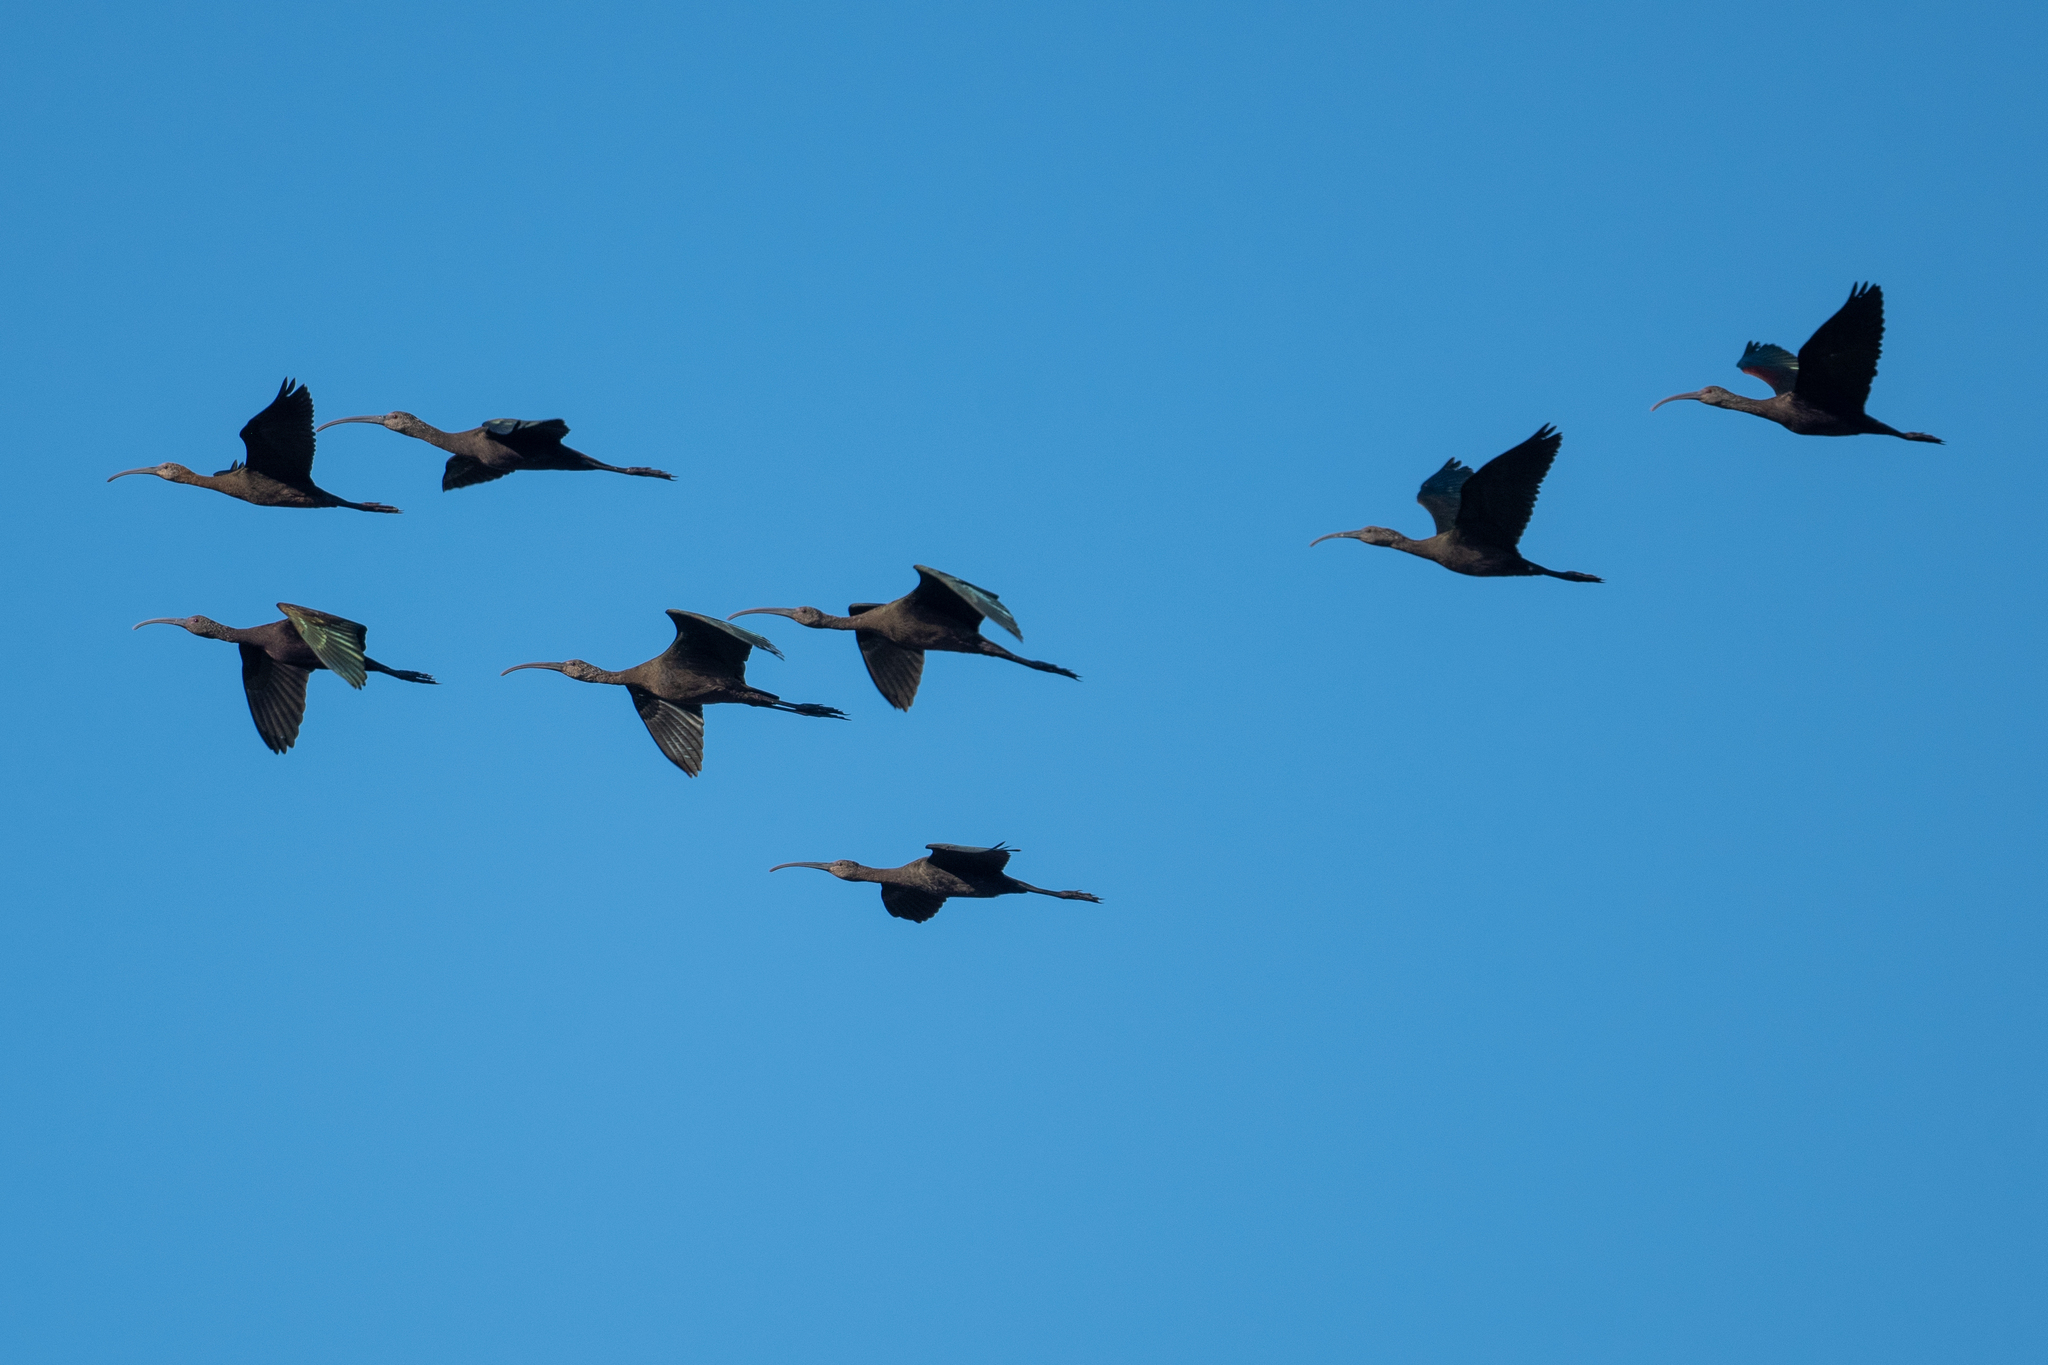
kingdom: Animalia
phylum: Chordata
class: Aves
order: Pelecaniformes
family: Threskiornithidae
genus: Plegadis
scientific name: Plegadis chihi
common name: White-faced ibis
